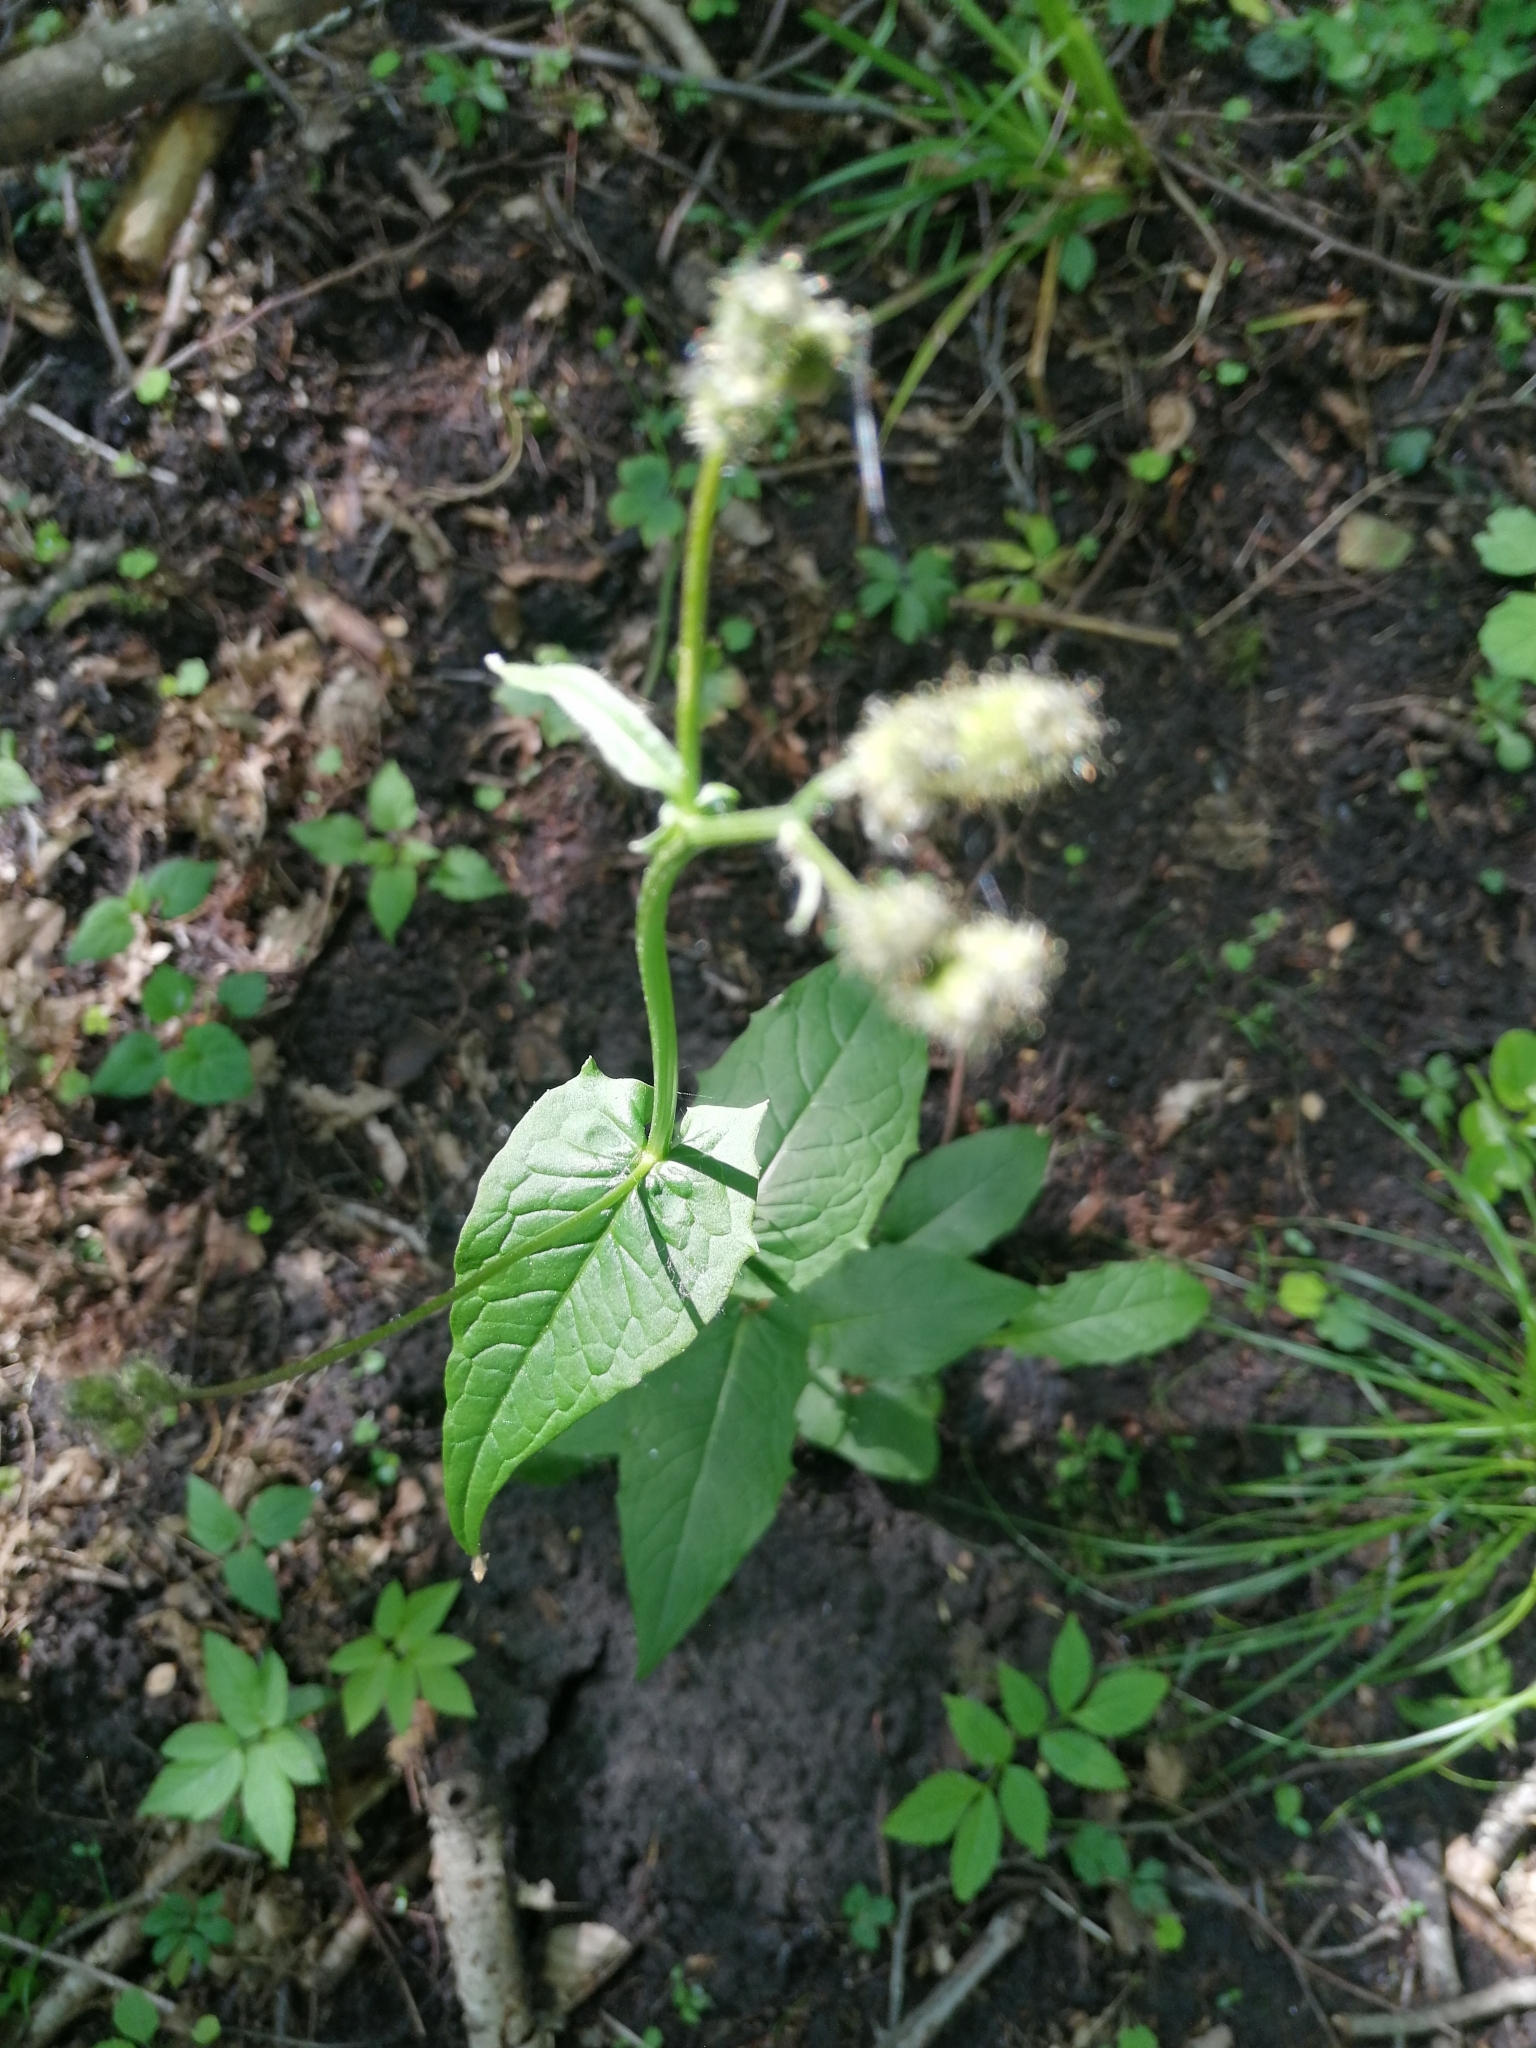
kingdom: Plantae
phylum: Tracheophyta
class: Magnoliopsida
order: Asterales
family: Asteraceae
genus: Crepis
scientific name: Crepis paludosa
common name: Marsh hawk's-beard
